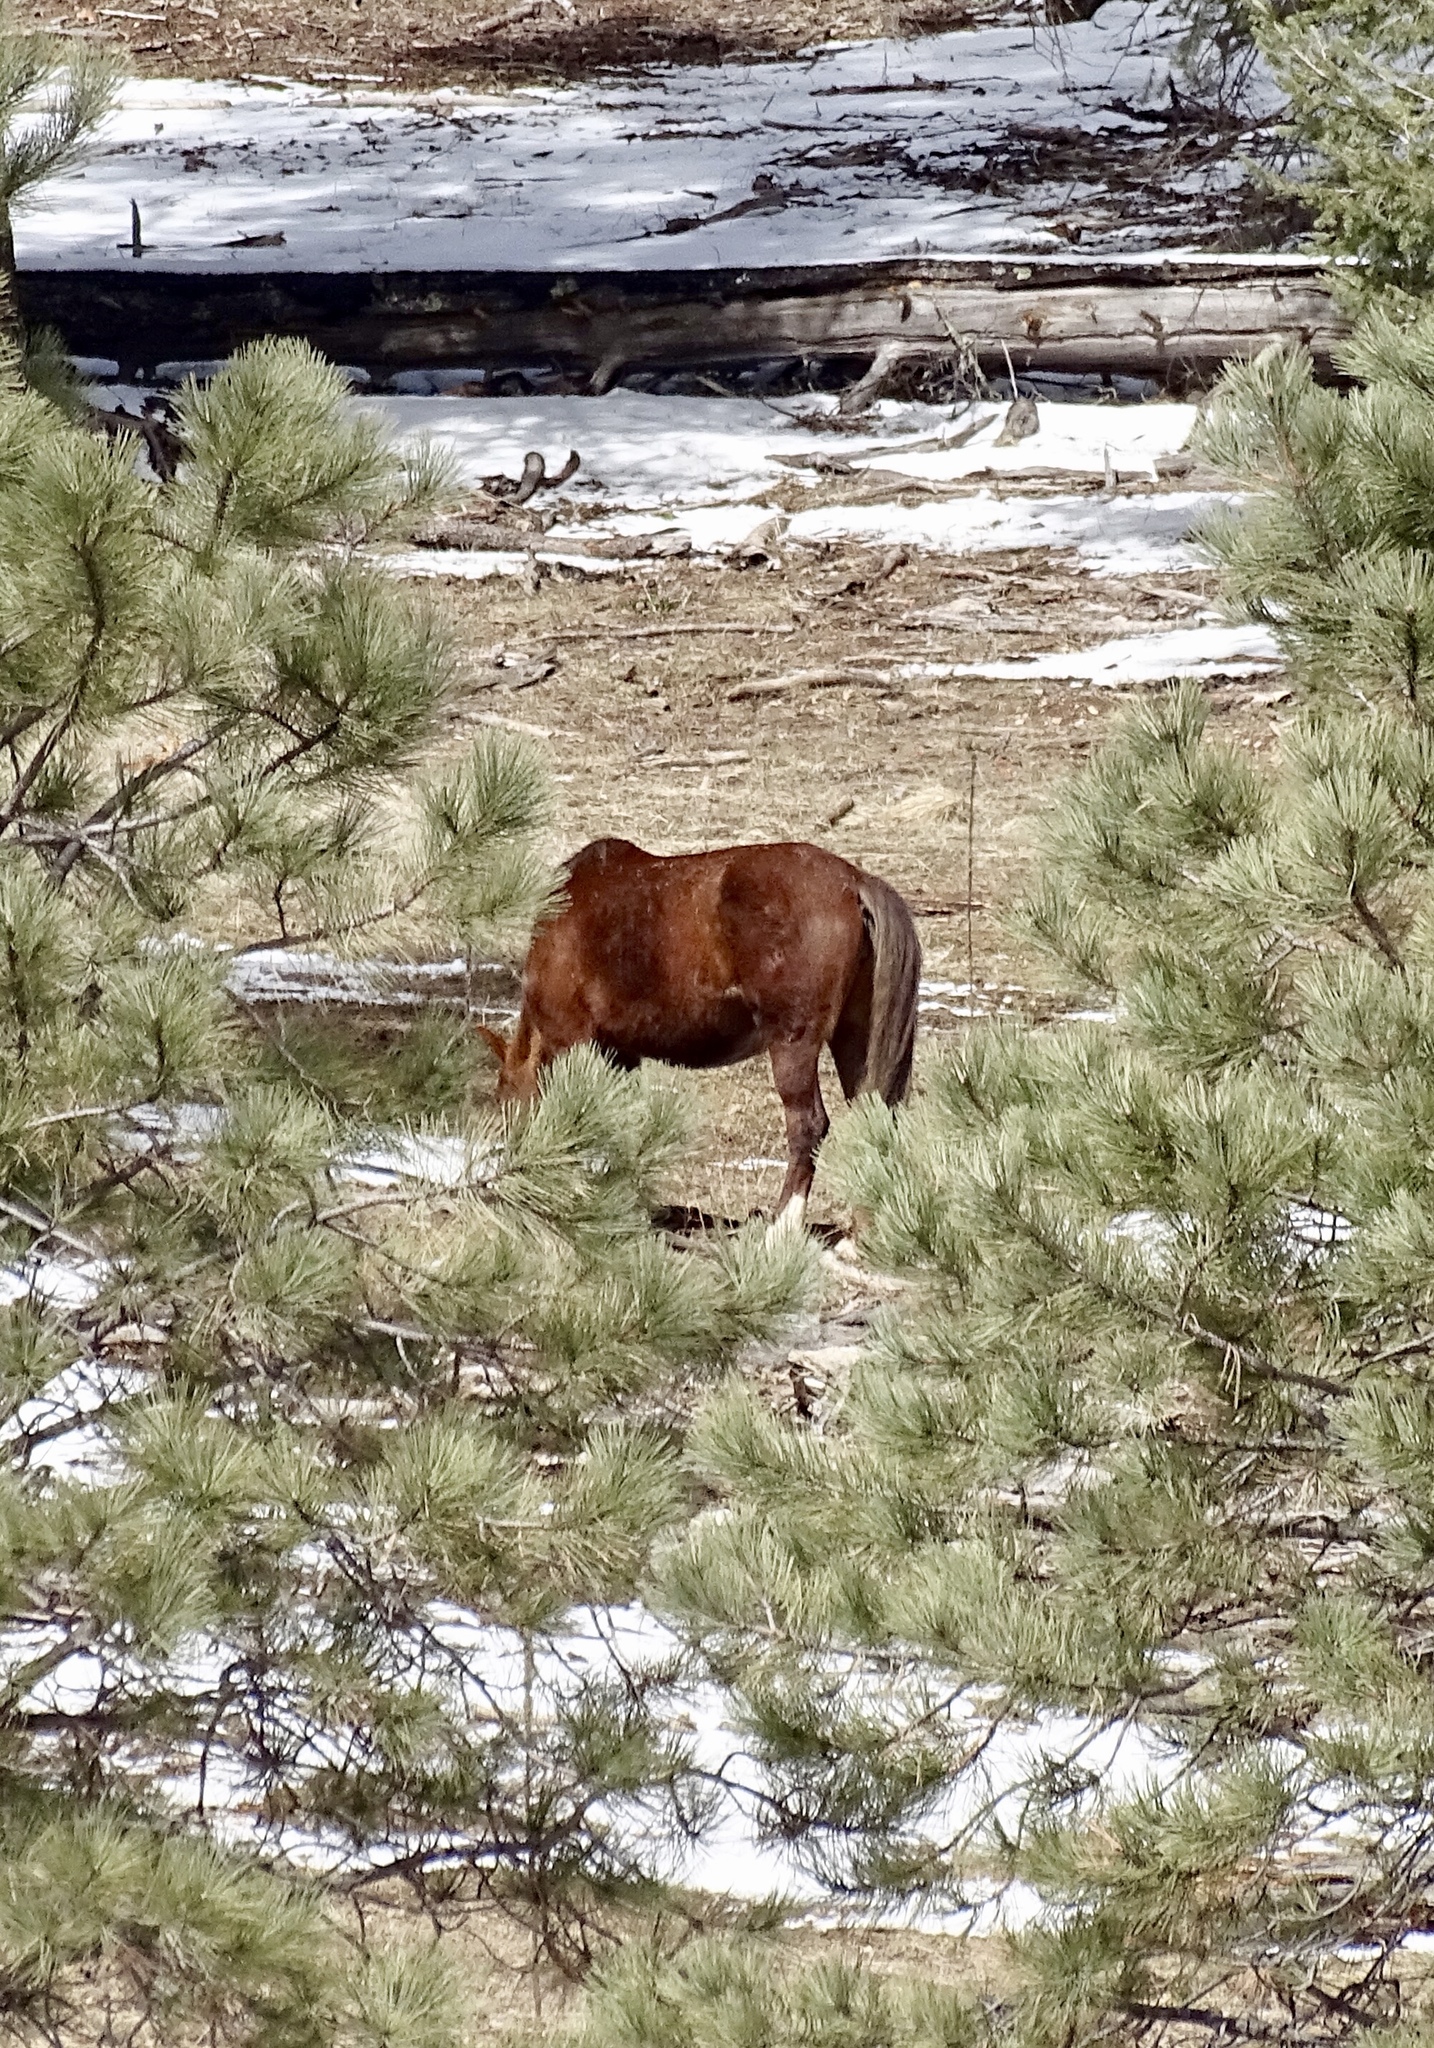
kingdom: Animalia
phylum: Chordata
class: Mammalia
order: Perissodactyla
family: Equidae
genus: Equus
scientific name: Equus caballus
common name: Horse
